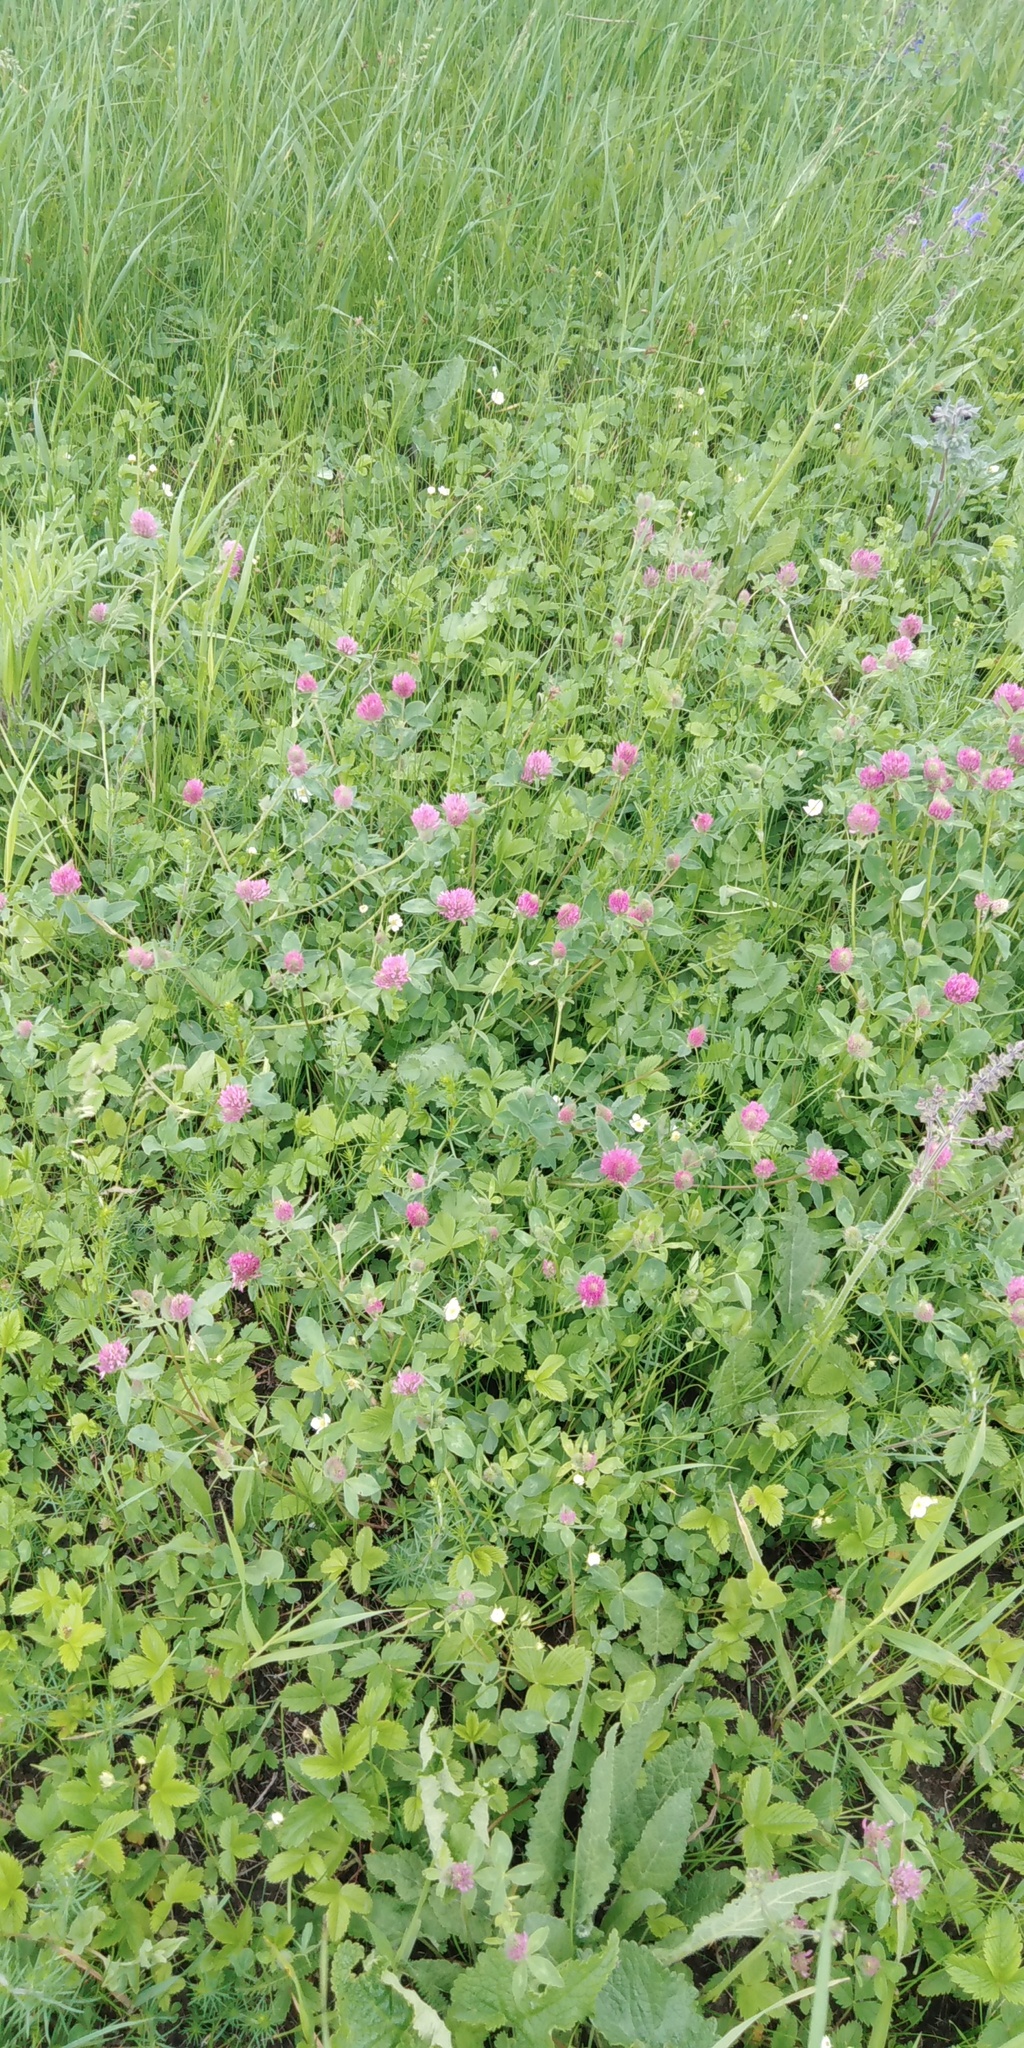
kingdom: Plantae
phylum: Tracheophyta
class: Magnoliopsida
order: Fabales
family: Fabaceae
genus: Trifolium
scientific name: Trifolium pratense
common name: Red clover
